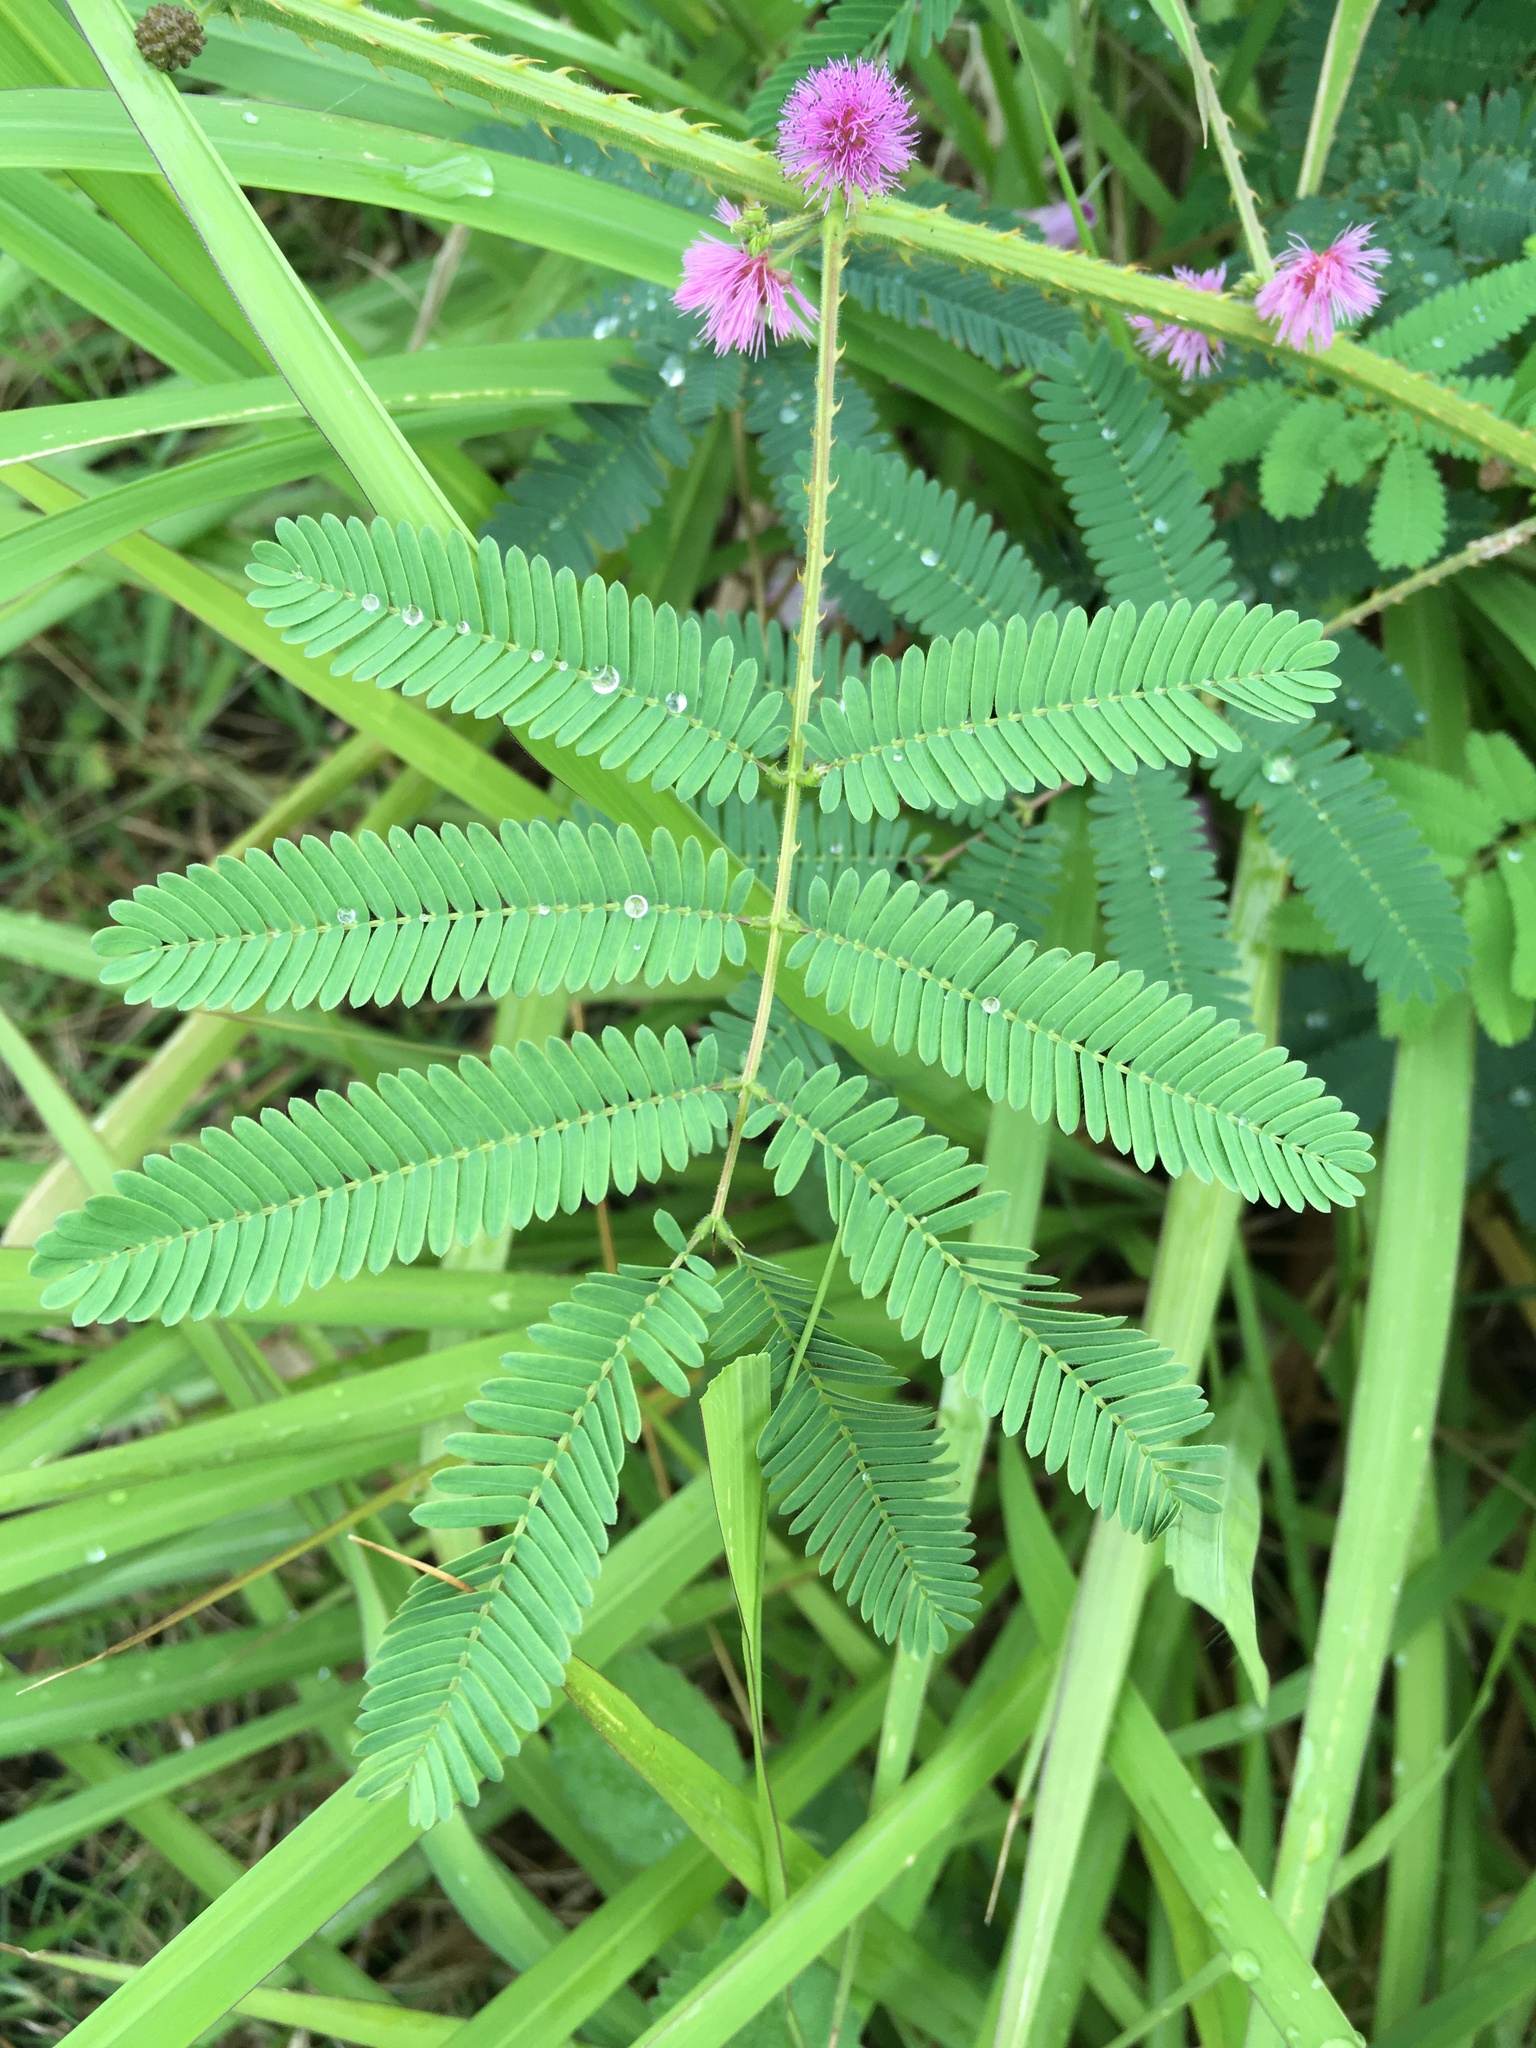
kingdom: Plantae
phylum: Tracheophyta
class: Magnoliopsida
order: Fabales
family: Fabaceae
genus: Mimosa
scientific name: Mimosa diplotricha
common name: Giant sensitive-plant
